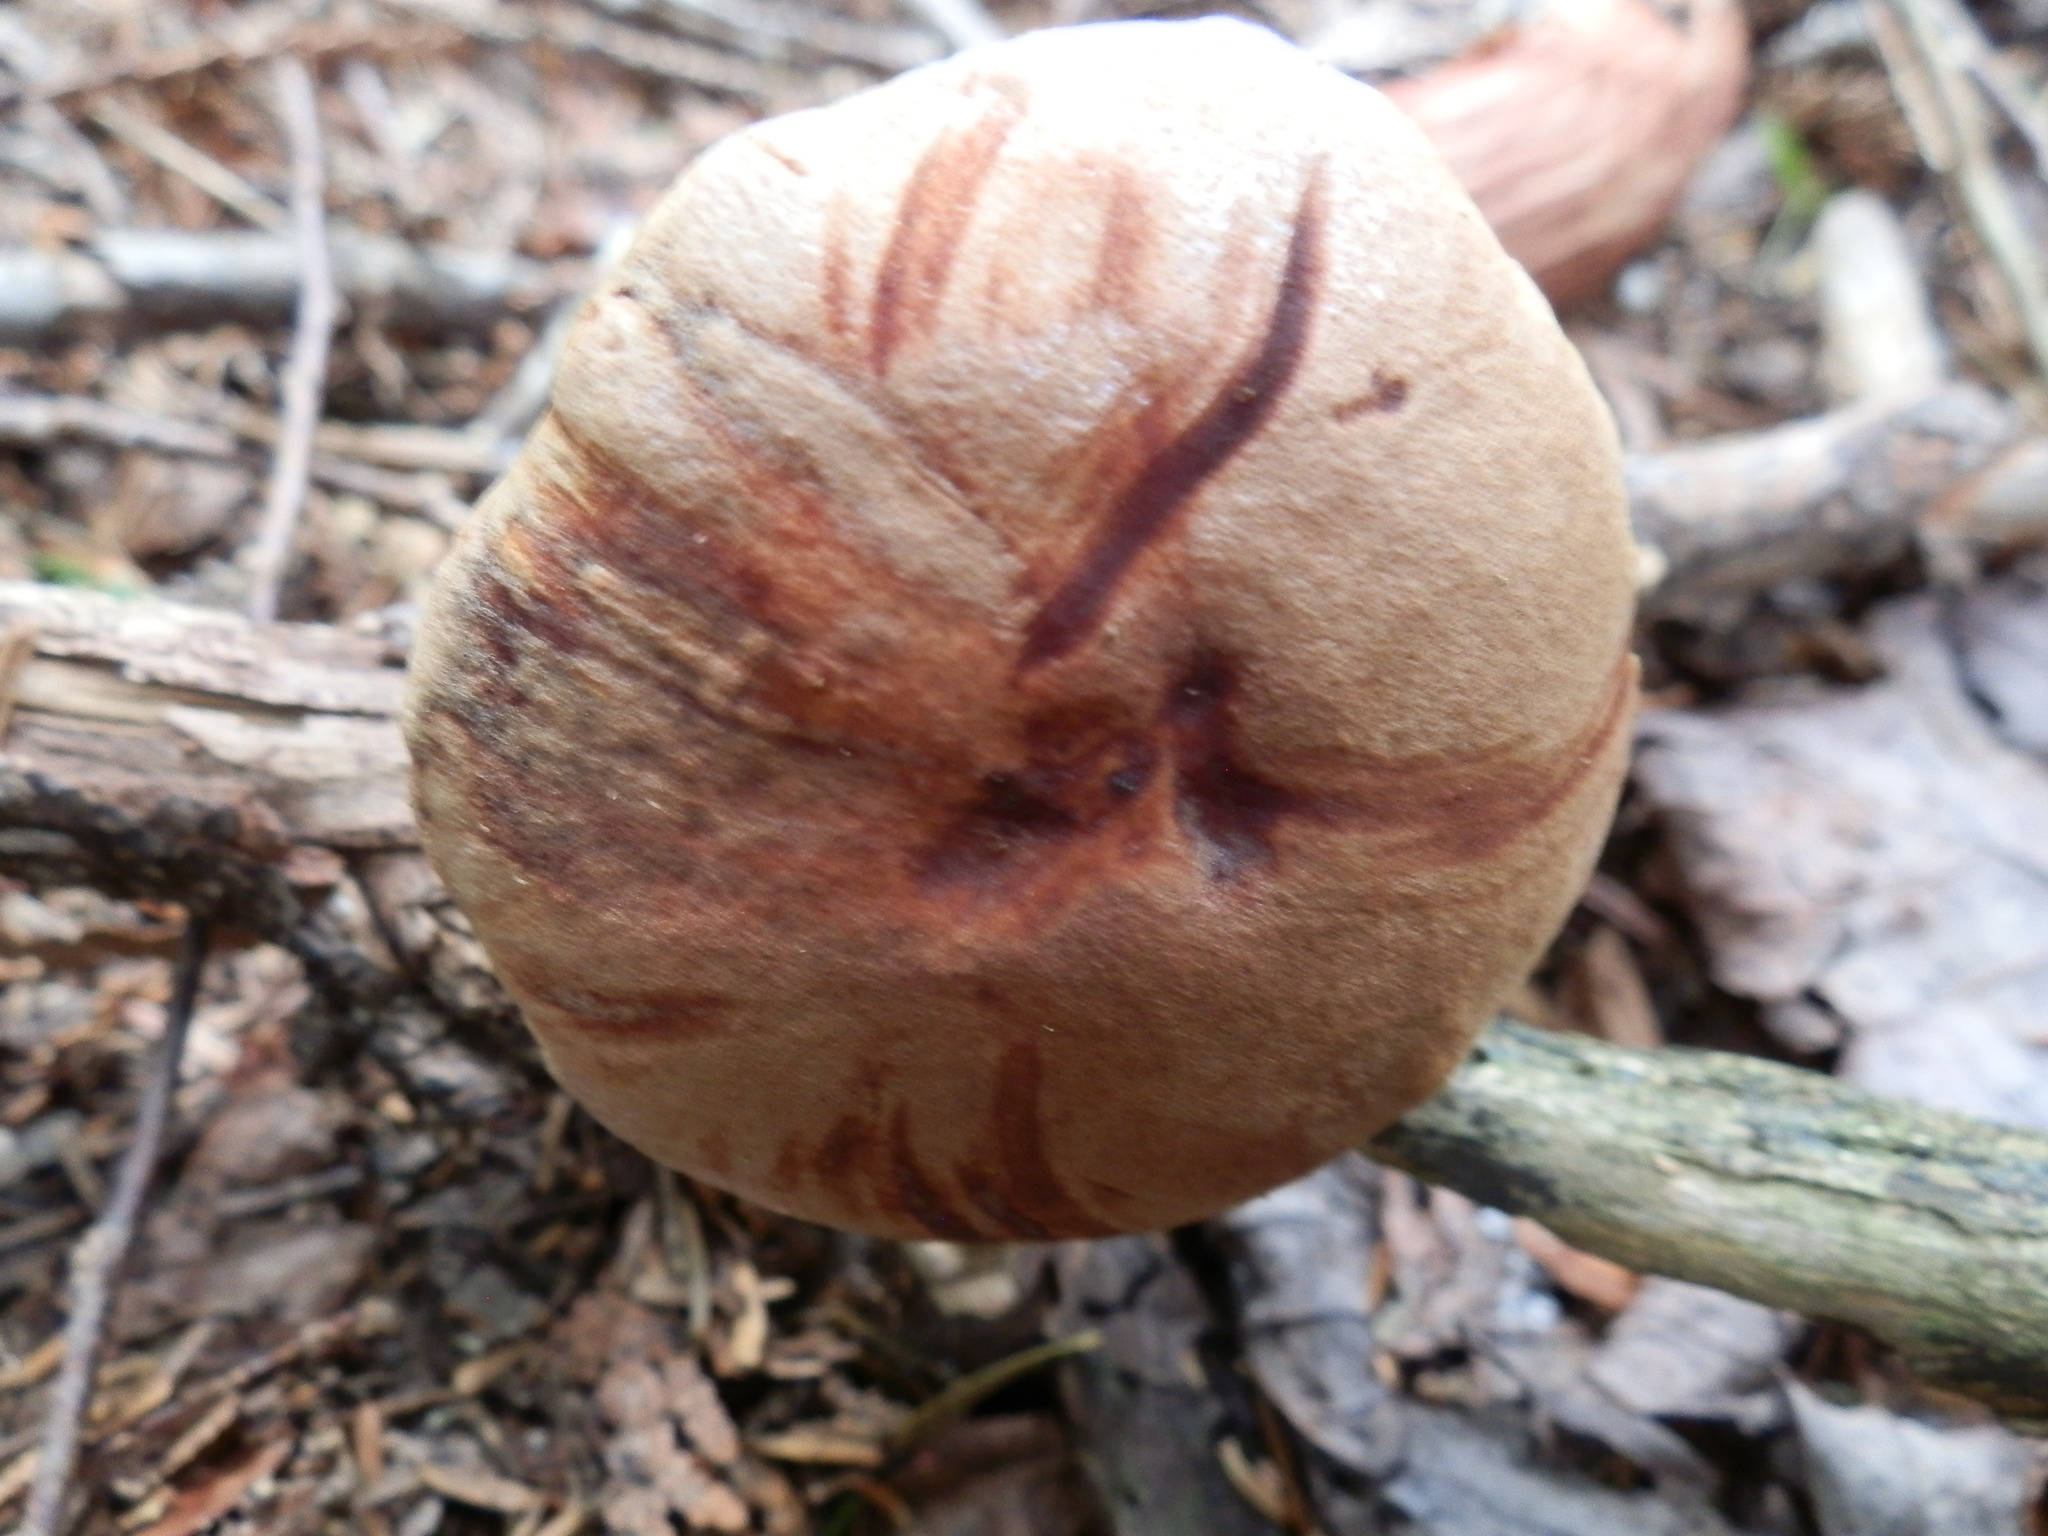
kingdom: Fungi
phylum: Basidiomycota
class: Agaricomycetes
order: Boletales
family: Boletaceae
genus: Aureoboletus
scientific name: Aureoboletus projectellus
